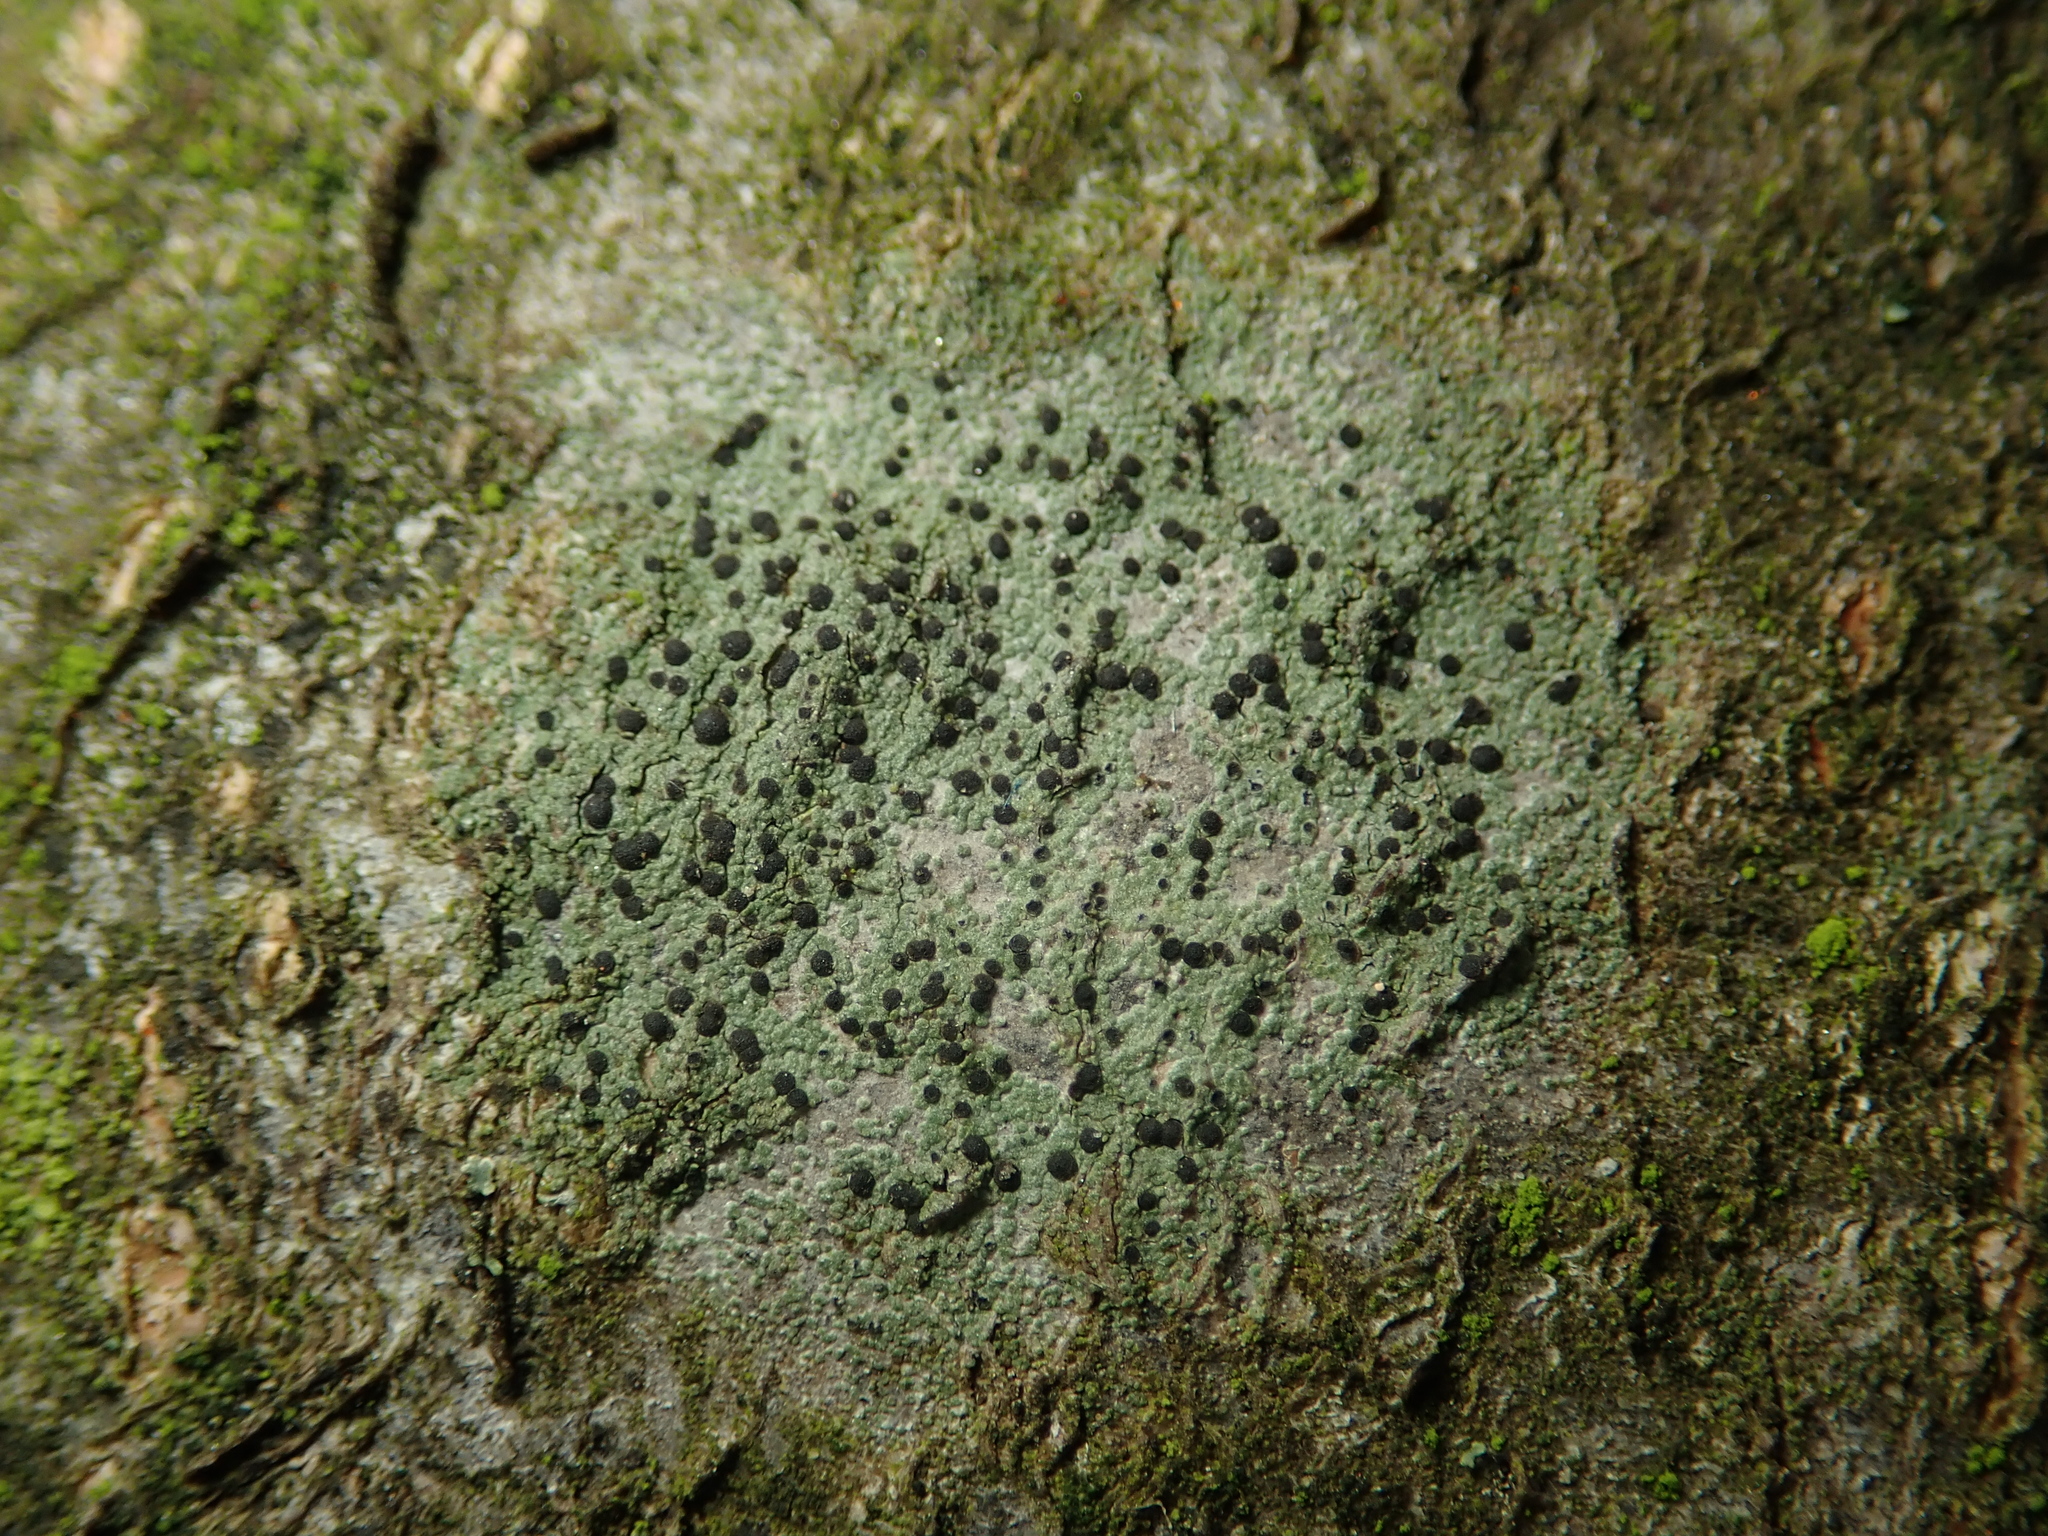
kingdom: Fungi
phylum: Ascomycota
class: Lecanoromycetes
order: Lecanorales
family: Lecanoraceae
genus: Lecidella
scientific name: Lecidella elaeochroma
